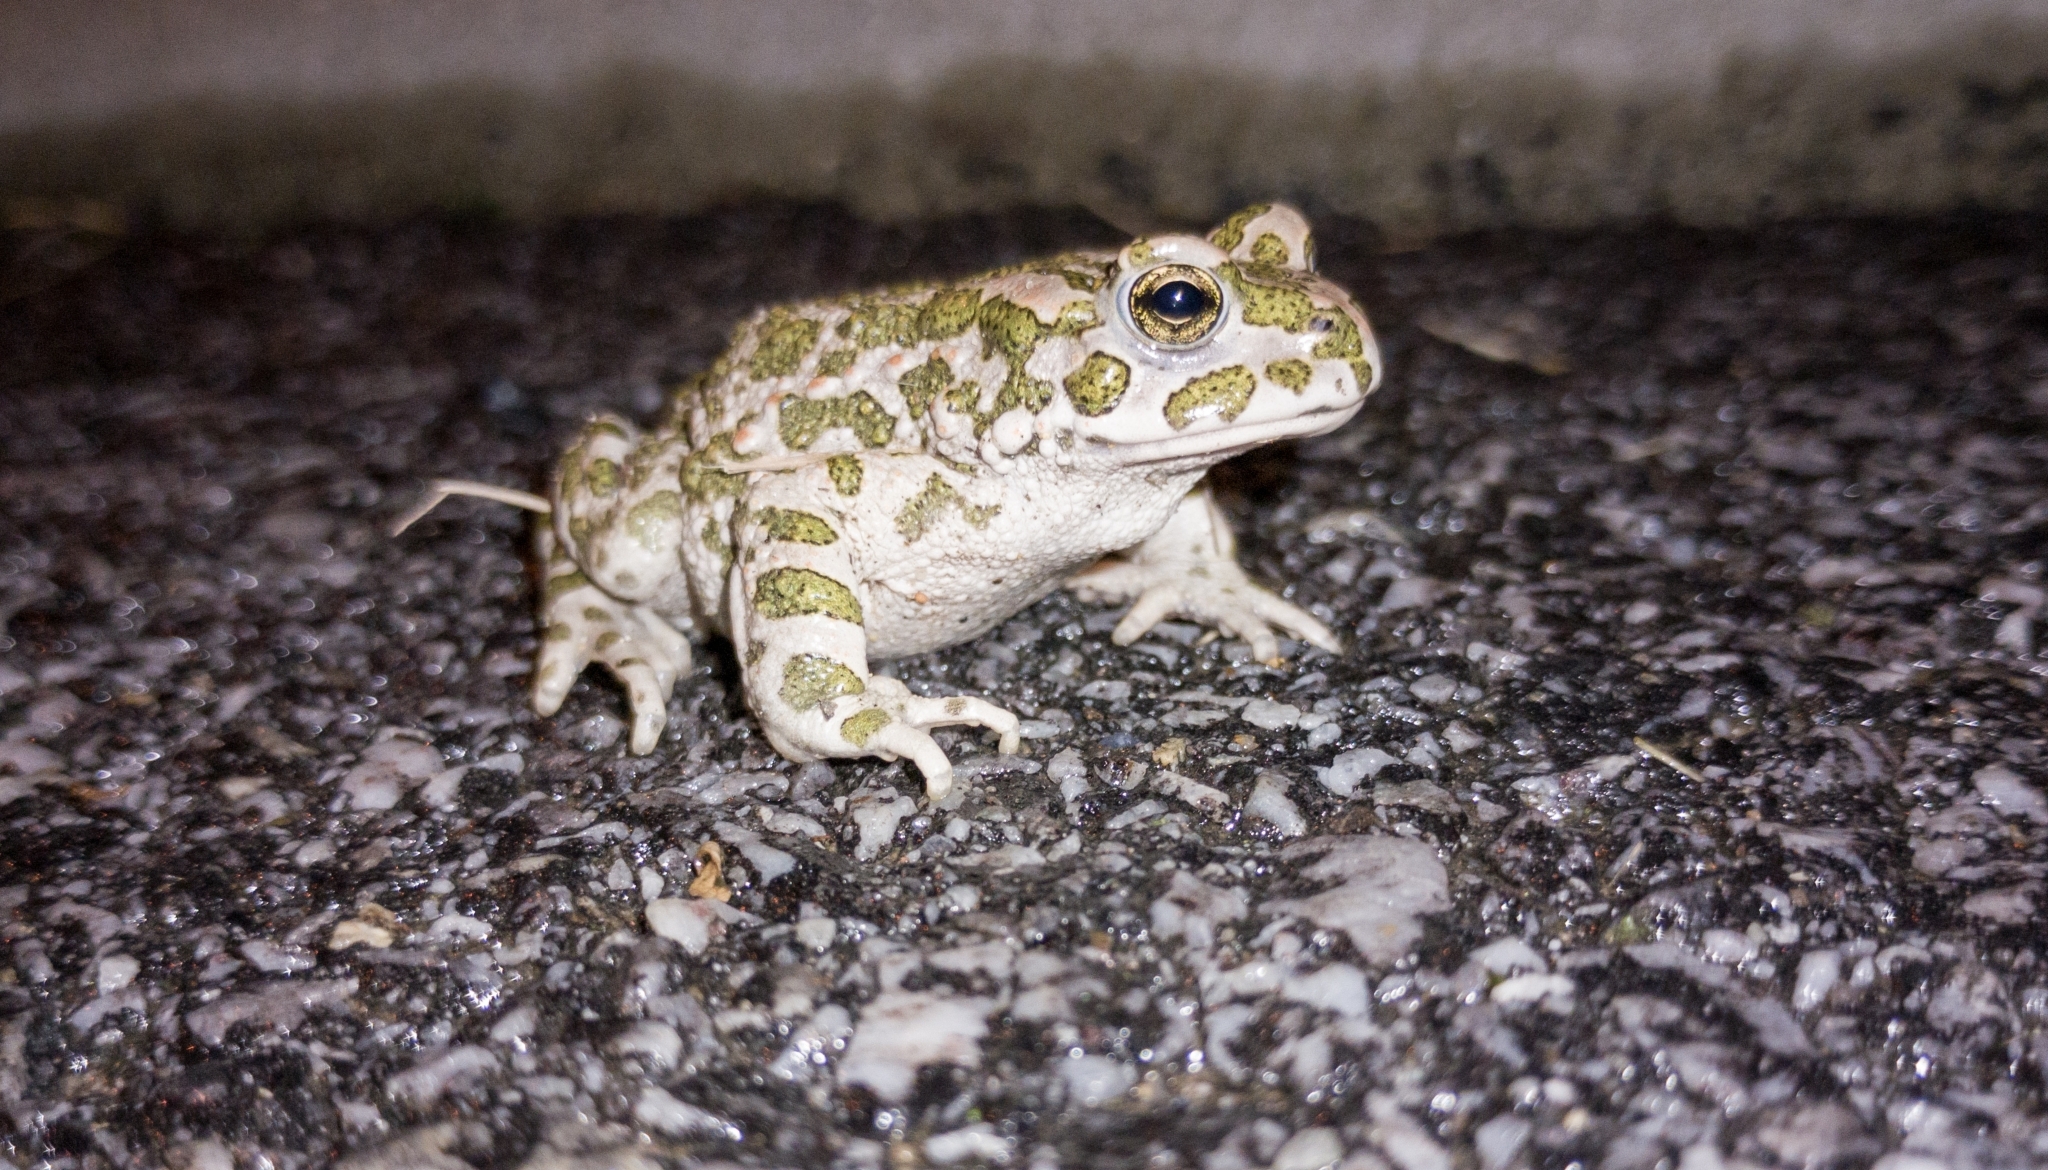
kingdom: Animalia
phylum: Chordata
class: Amphibia
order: Anura
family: Bufonidae
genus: Bufotes
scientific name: Bufotes viridis
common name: European green toad
